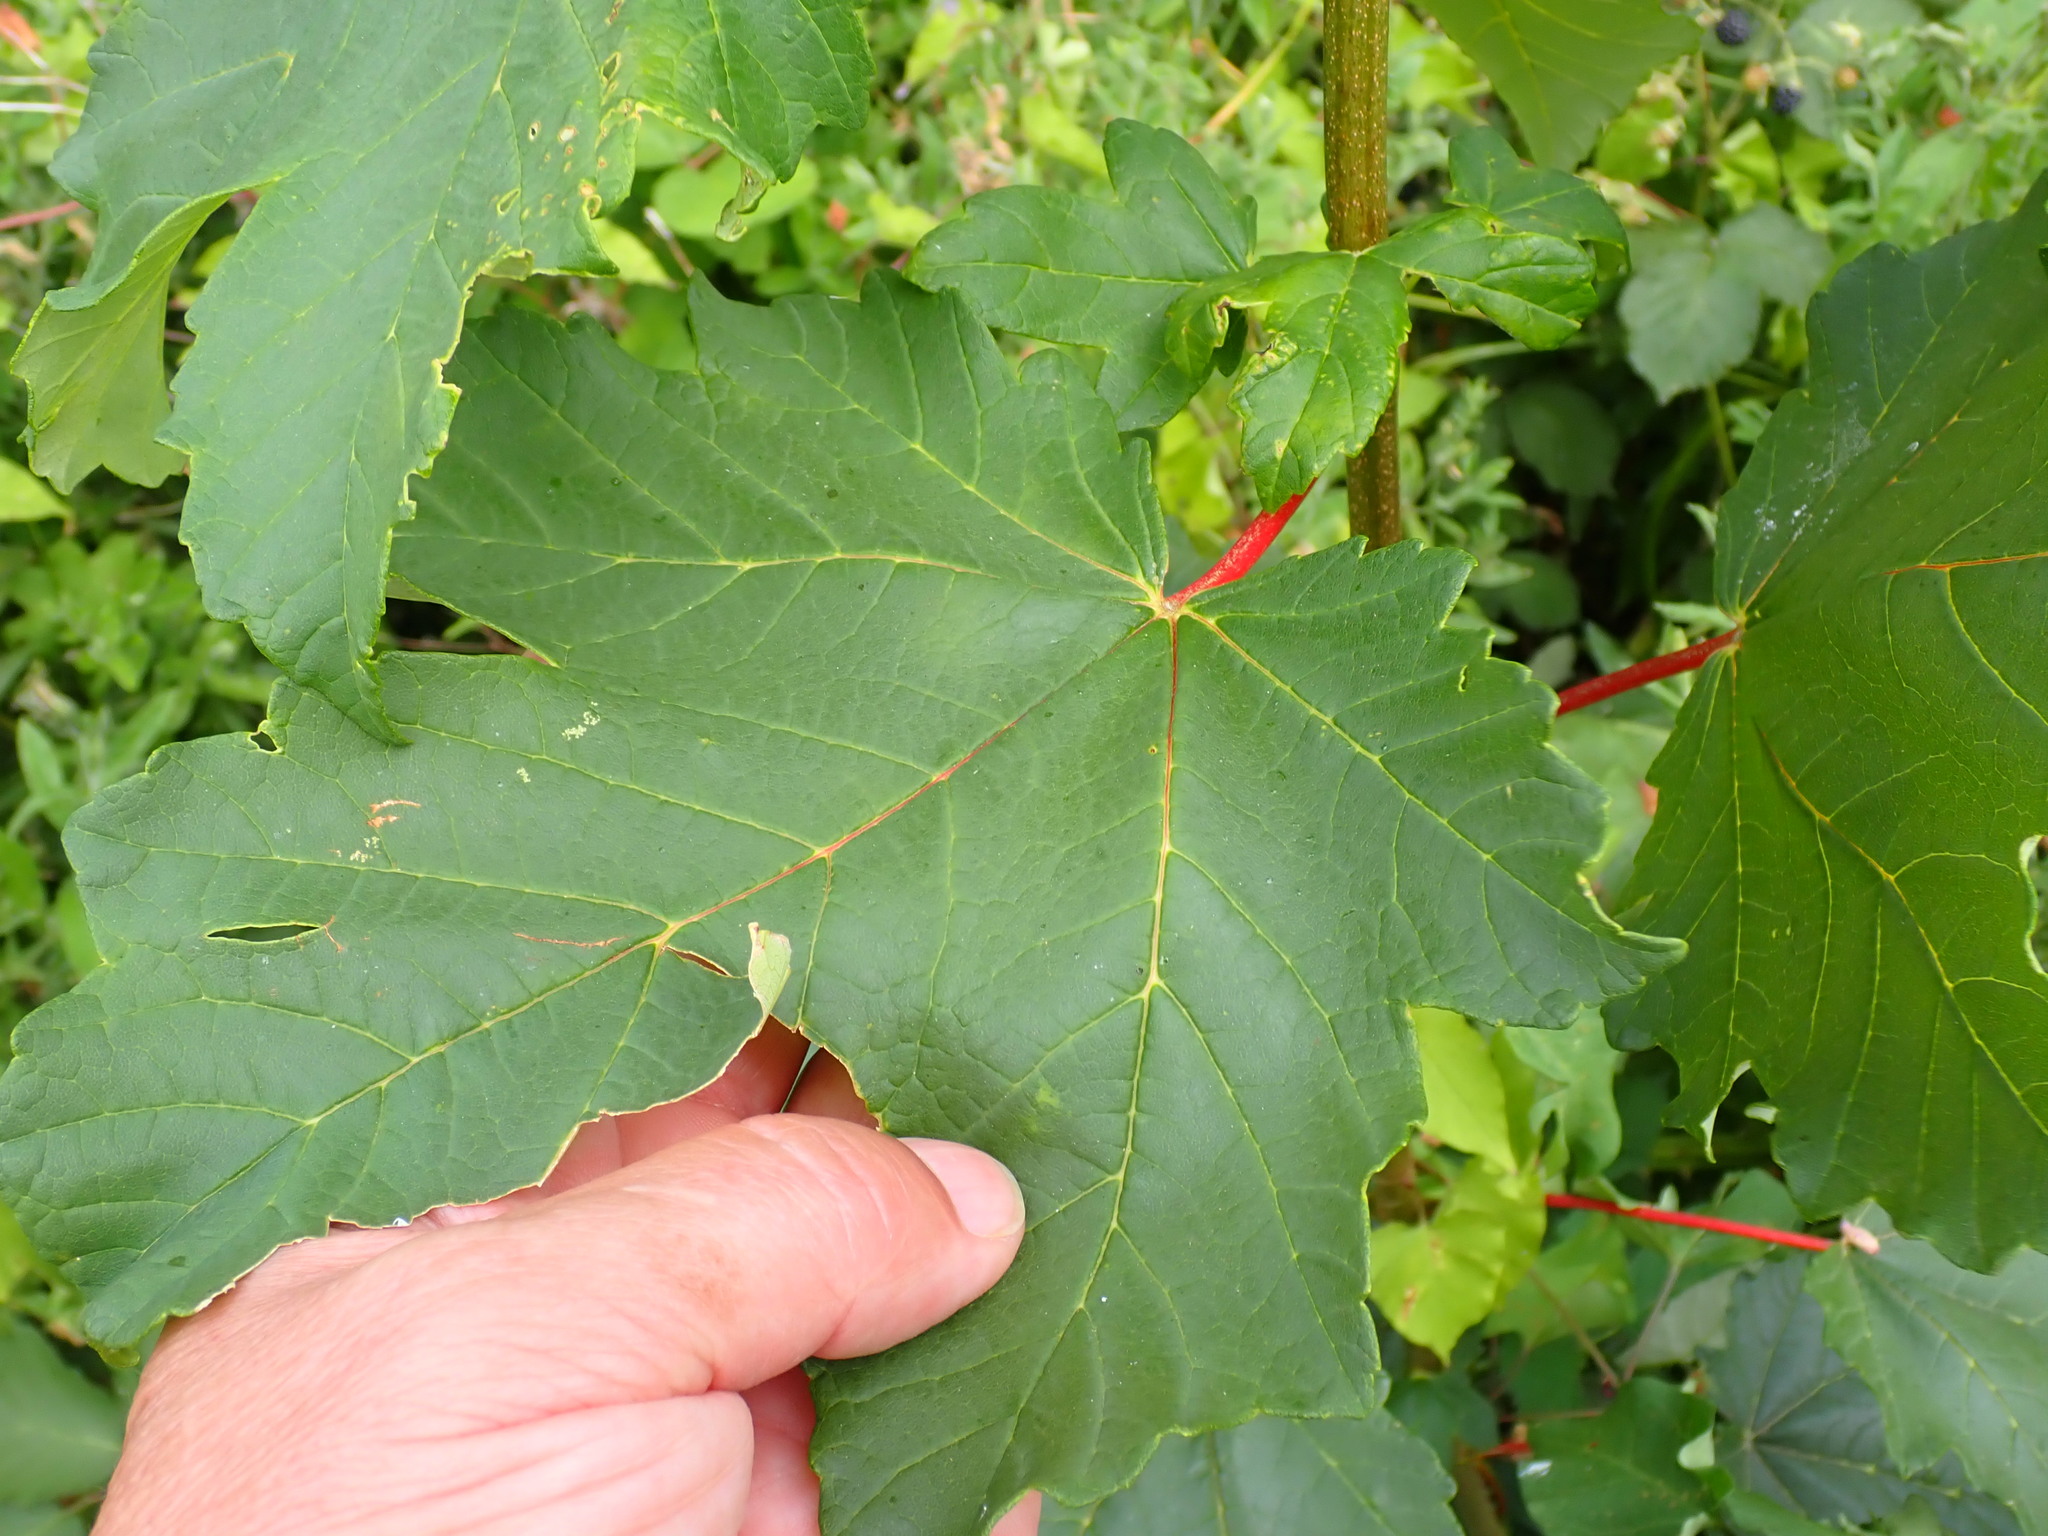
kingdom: Plantae
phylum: Tracheophyta
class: Magnoliopsida
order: Sapindales
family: Sapindaceae
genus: Acer
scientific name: Acer pseudoplatanus
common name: Sycamore
